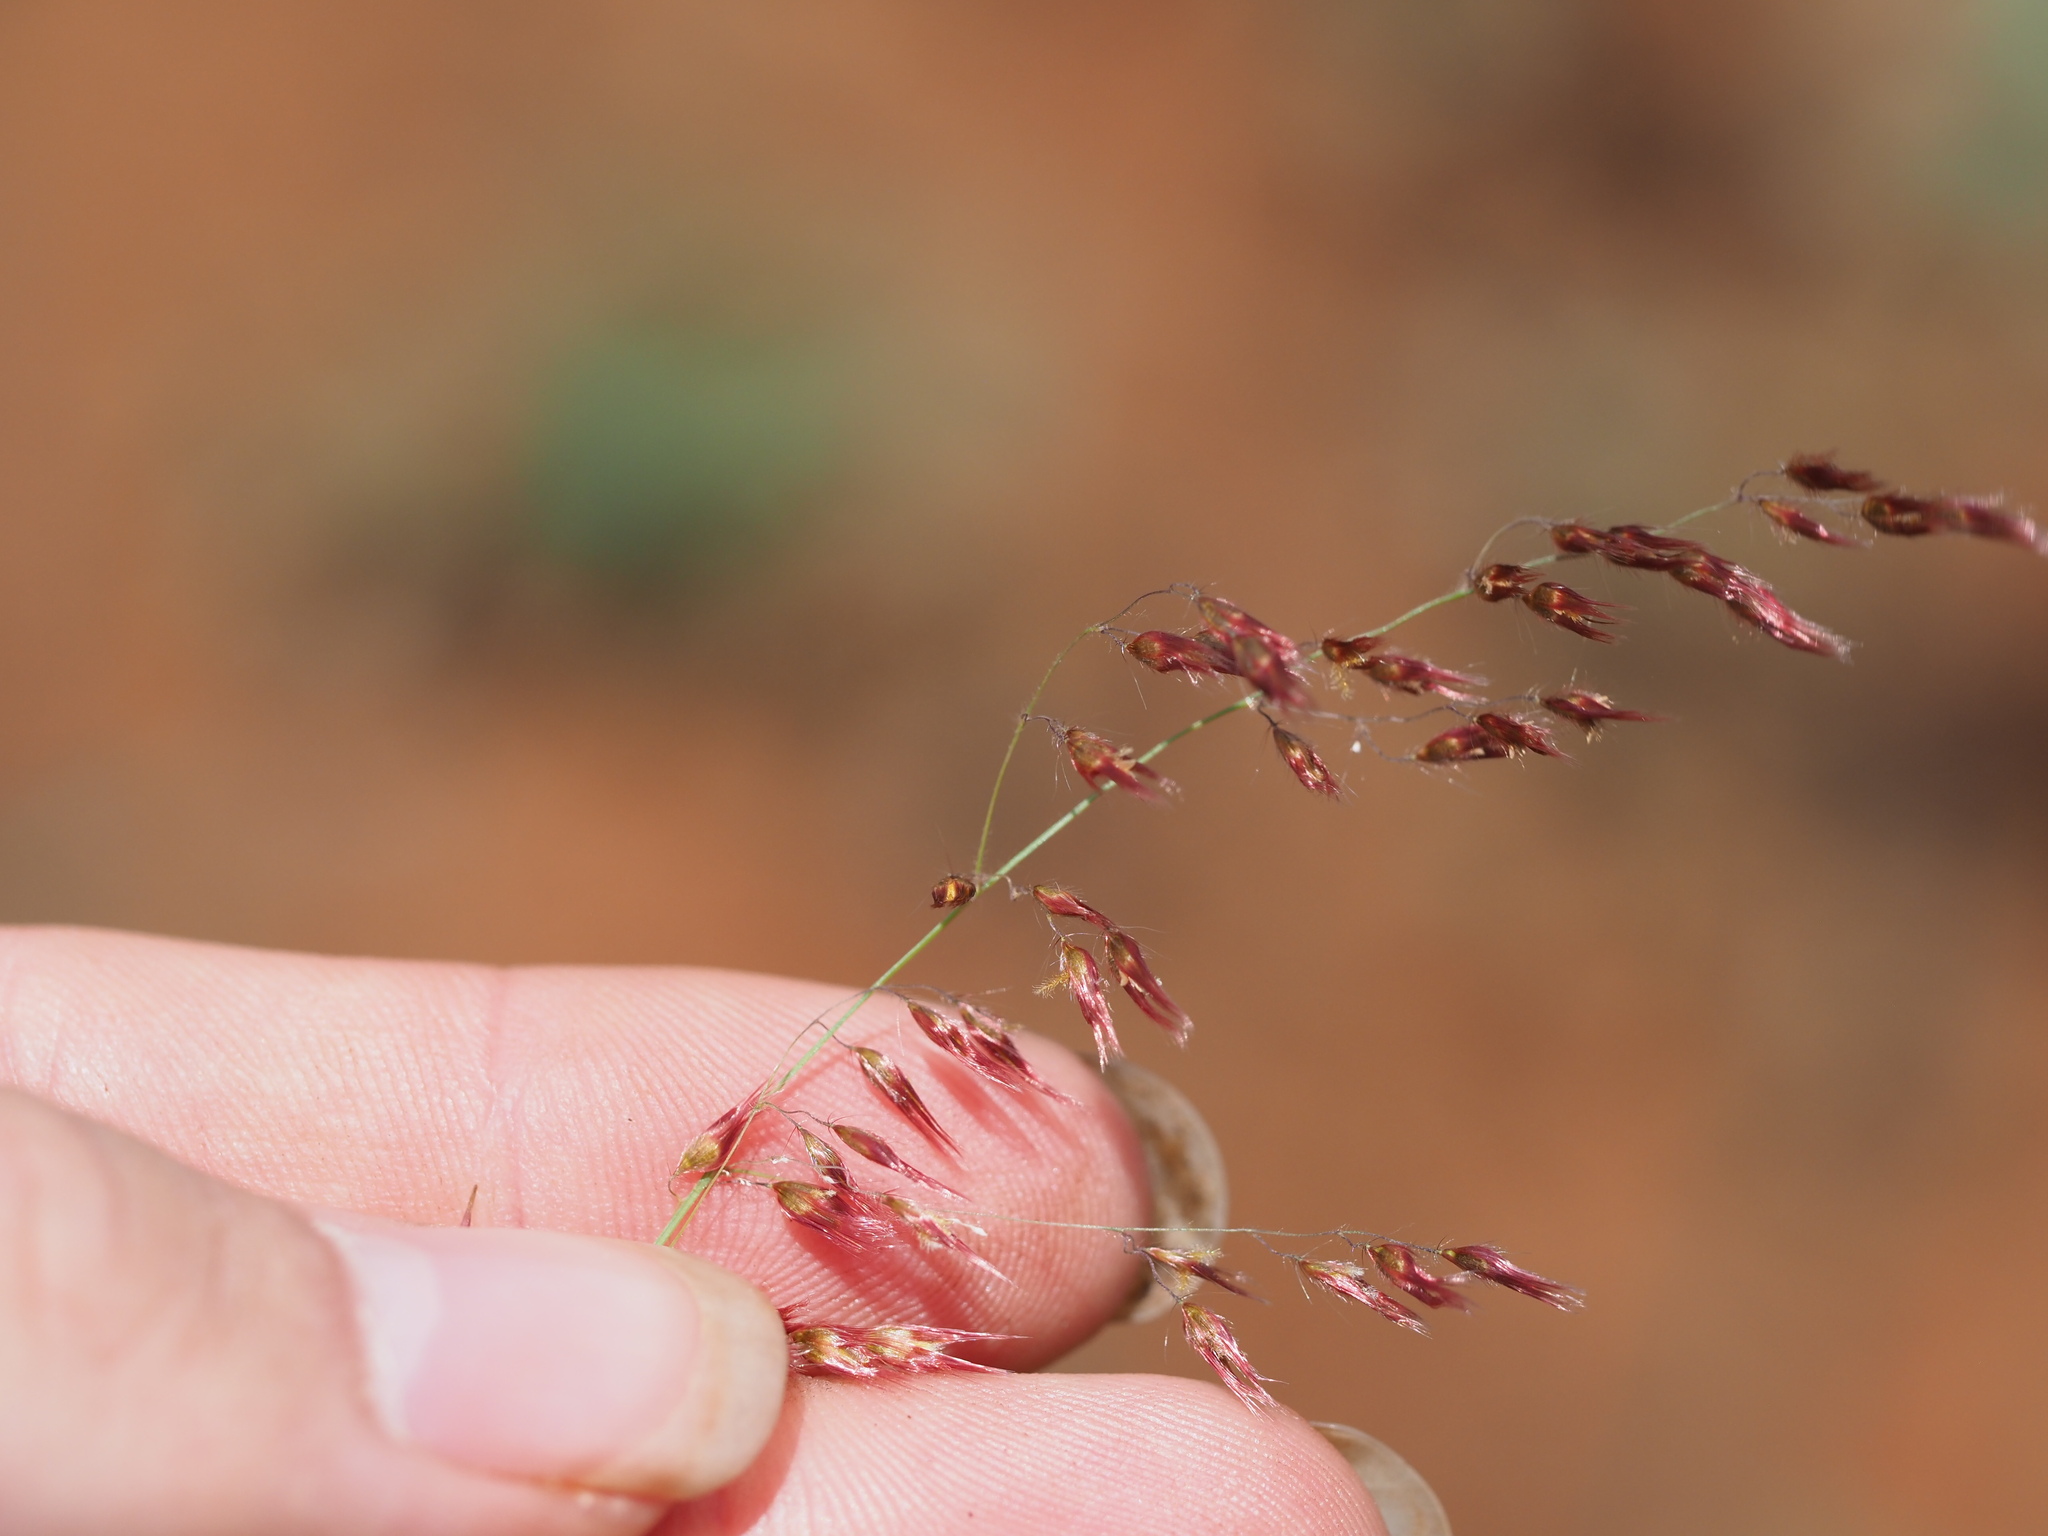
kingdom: Plantae
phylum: Tracheophyta
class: Liliopsida
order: Poales
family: Poaceae
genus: Melinis
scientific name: Melinis repens
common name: Rose natal grass
